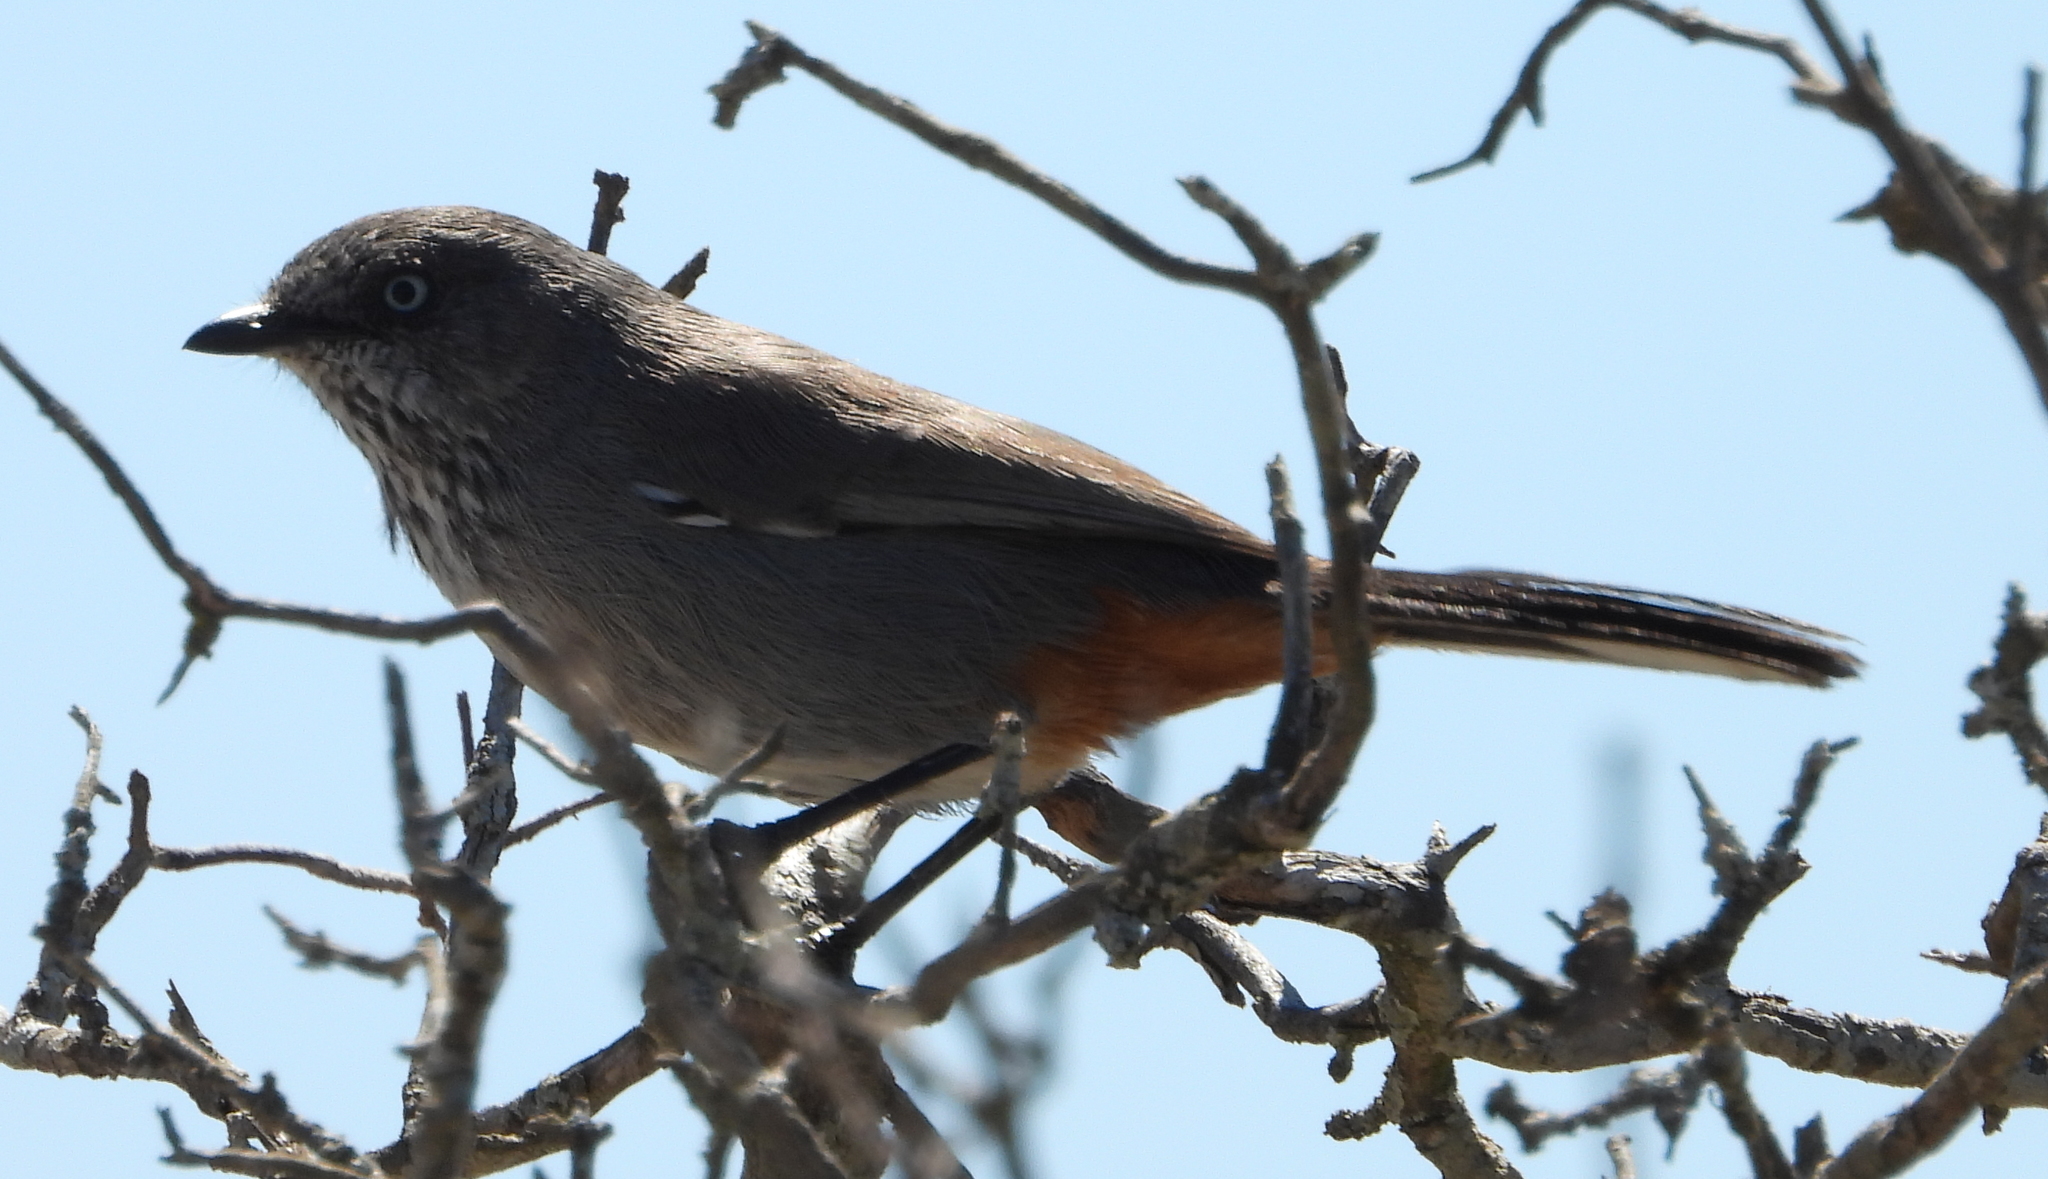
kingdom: Animalia
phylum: Chordata
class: Aves
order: Passeriformes
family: Sylviidae
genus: Curruca
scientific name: Curruca subcoerulea
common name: Chestnut-vented warbler
